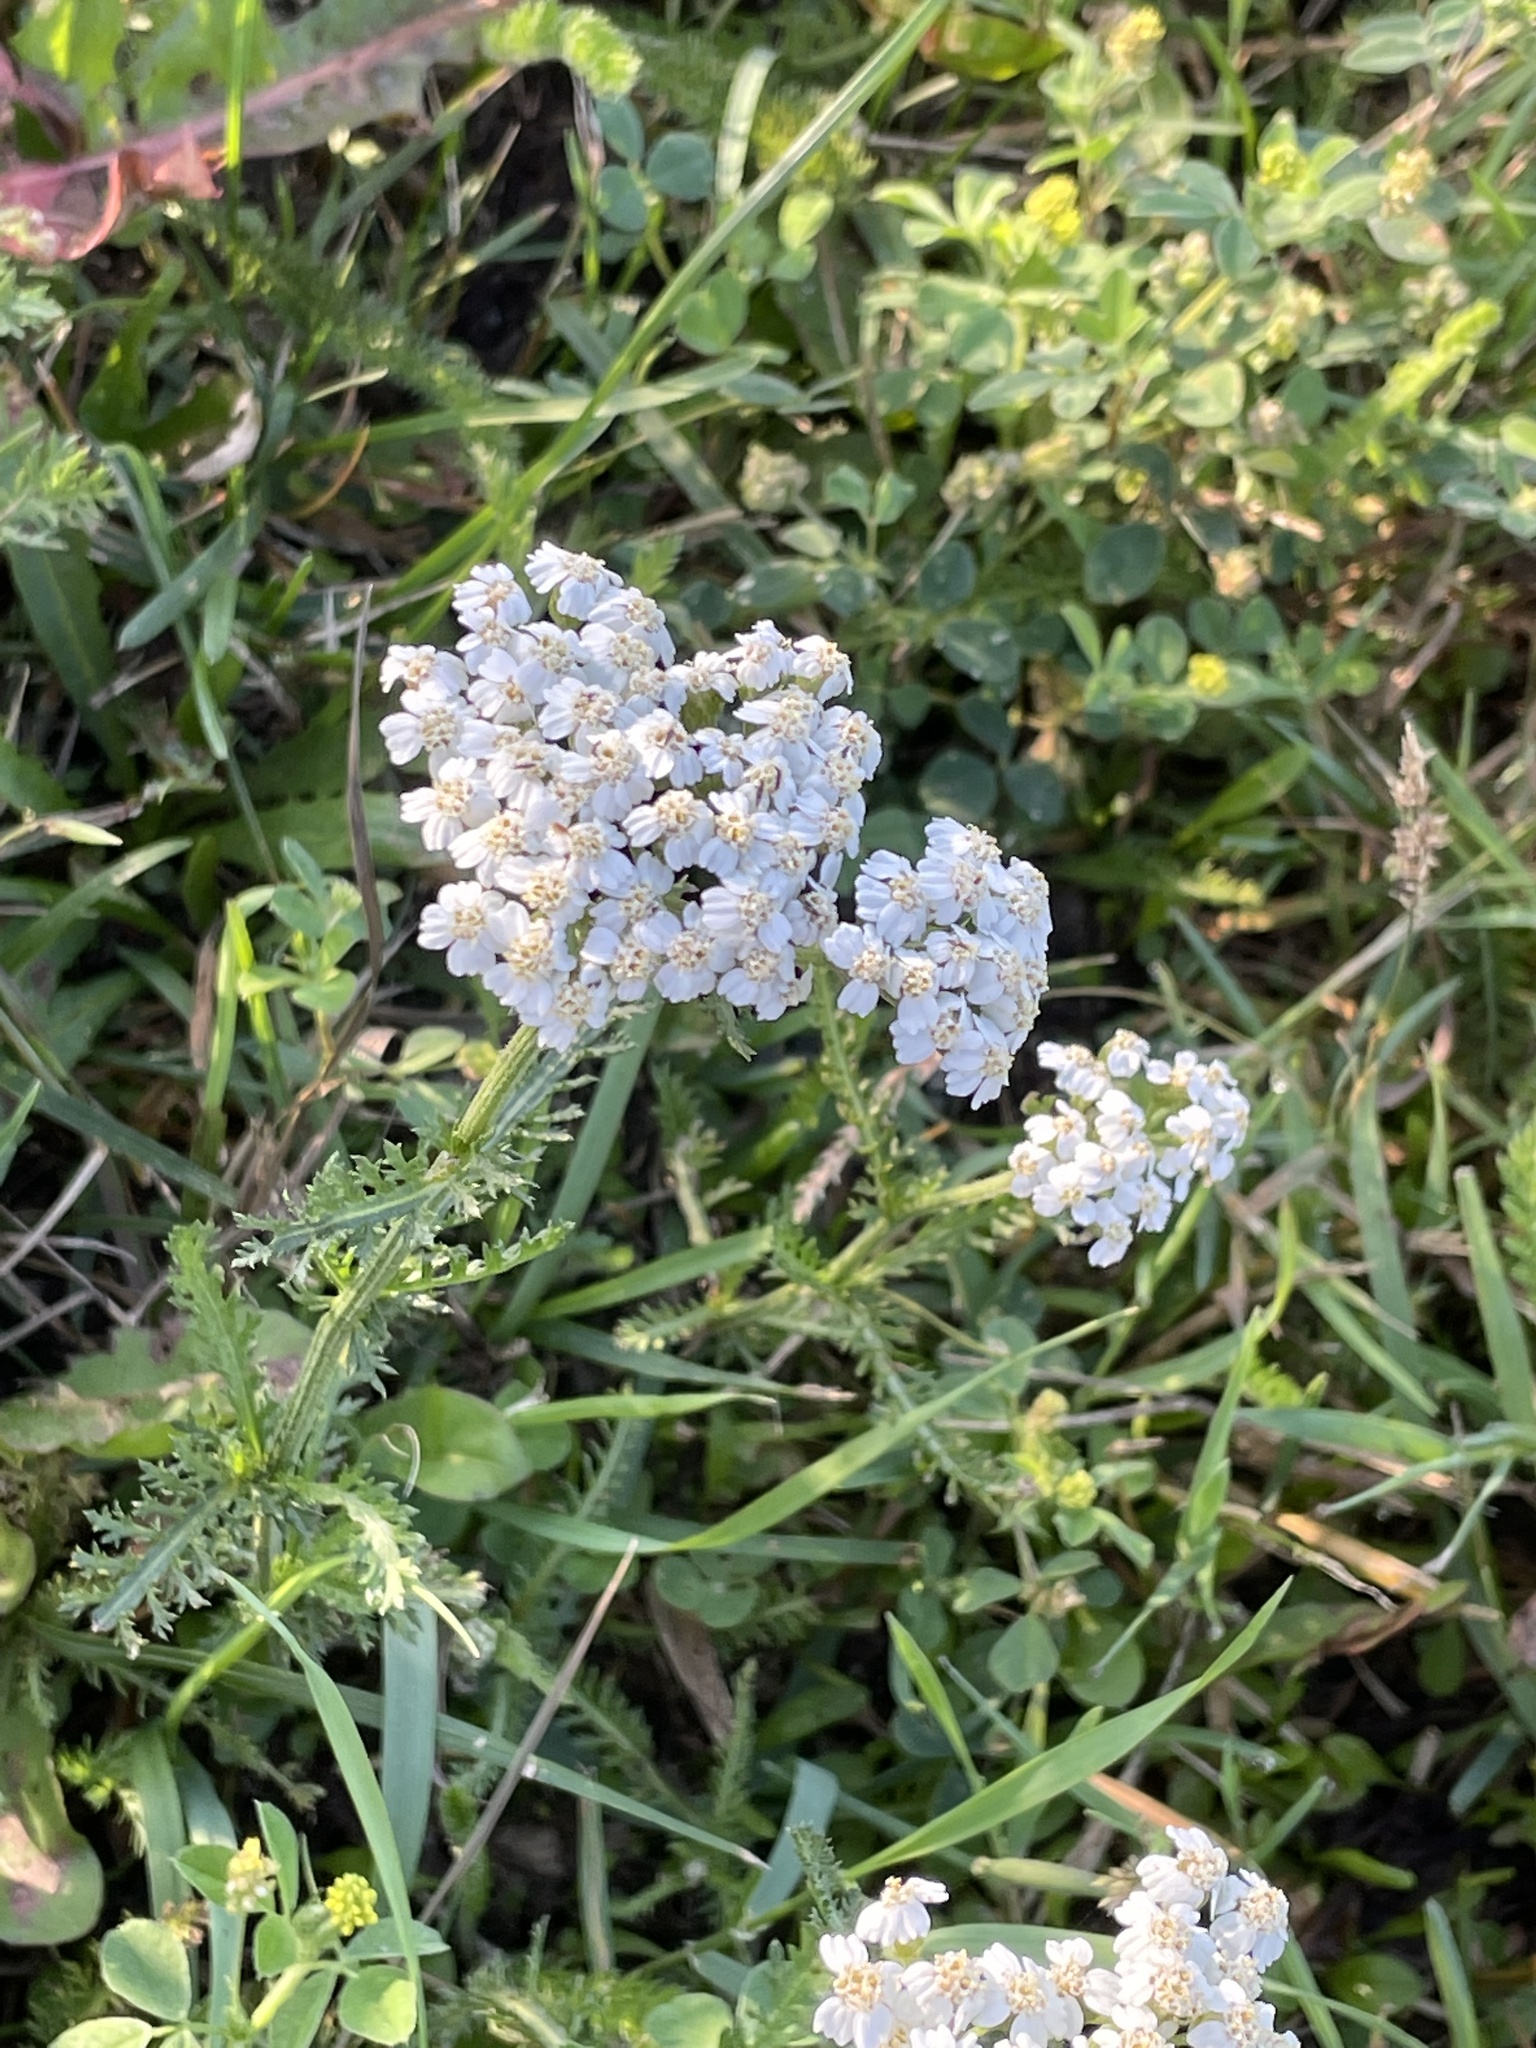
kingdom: Plantae
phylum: Tracheophyta
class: Magnoliopsida
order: Asterales
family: Asteraceae
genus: Achillea
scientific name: Achillea millefolium
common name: Yarrow
